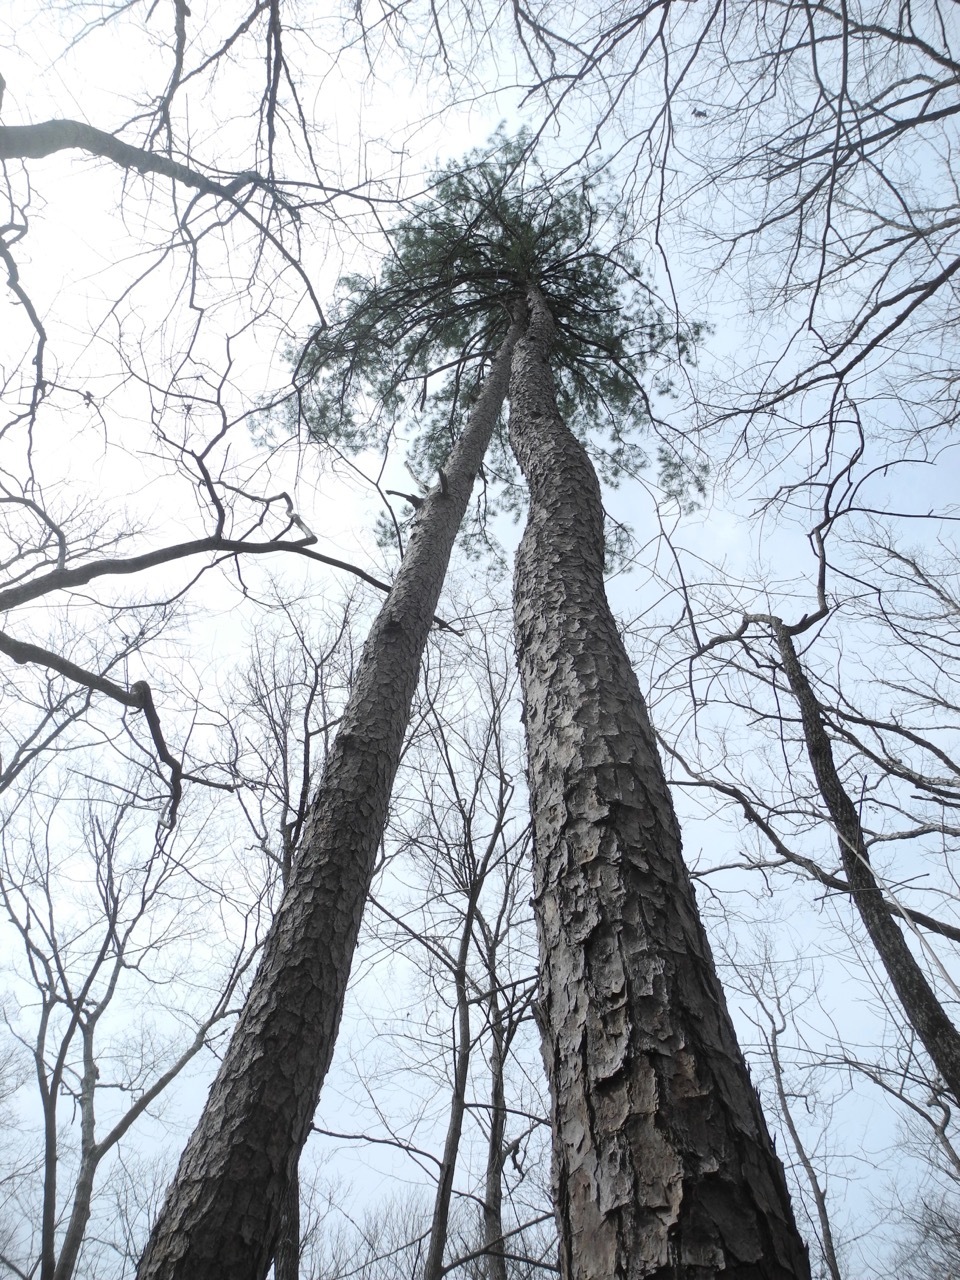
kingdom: Plantae
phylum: Tracheophyta
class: Pinopsida
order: Pinales
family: Pinaceae
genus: Pinus
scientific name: Pinus echinata
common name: Shortleaf pine
